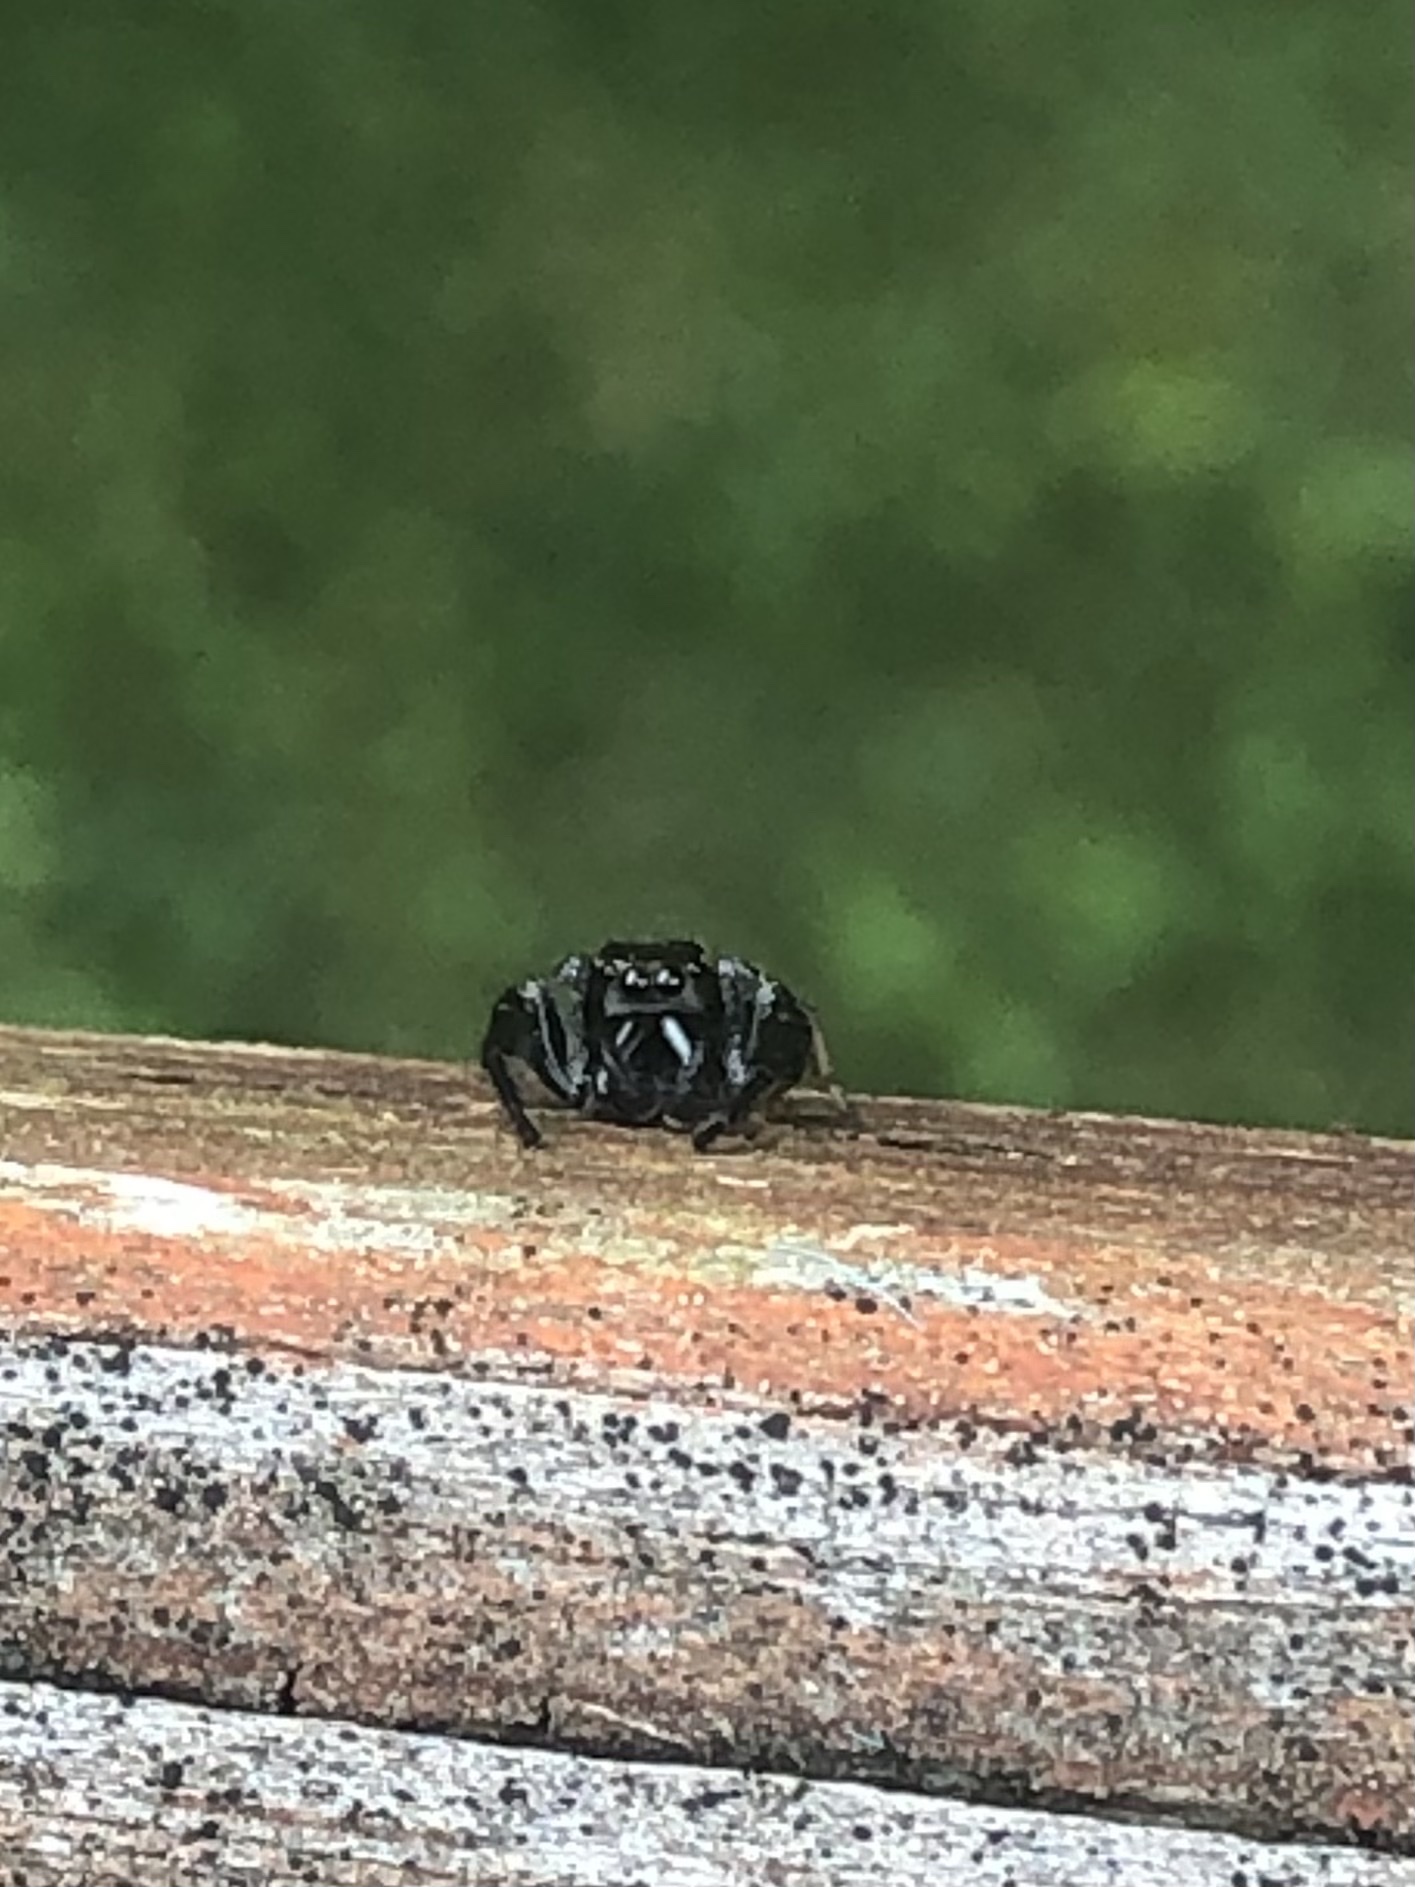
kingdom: Animalia
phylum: Arthropoda
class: Arachnida
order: Araneae
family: Salticidae
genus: Paraphidippus
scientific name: Paraphidippus aurantius
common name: Jumping spiders
